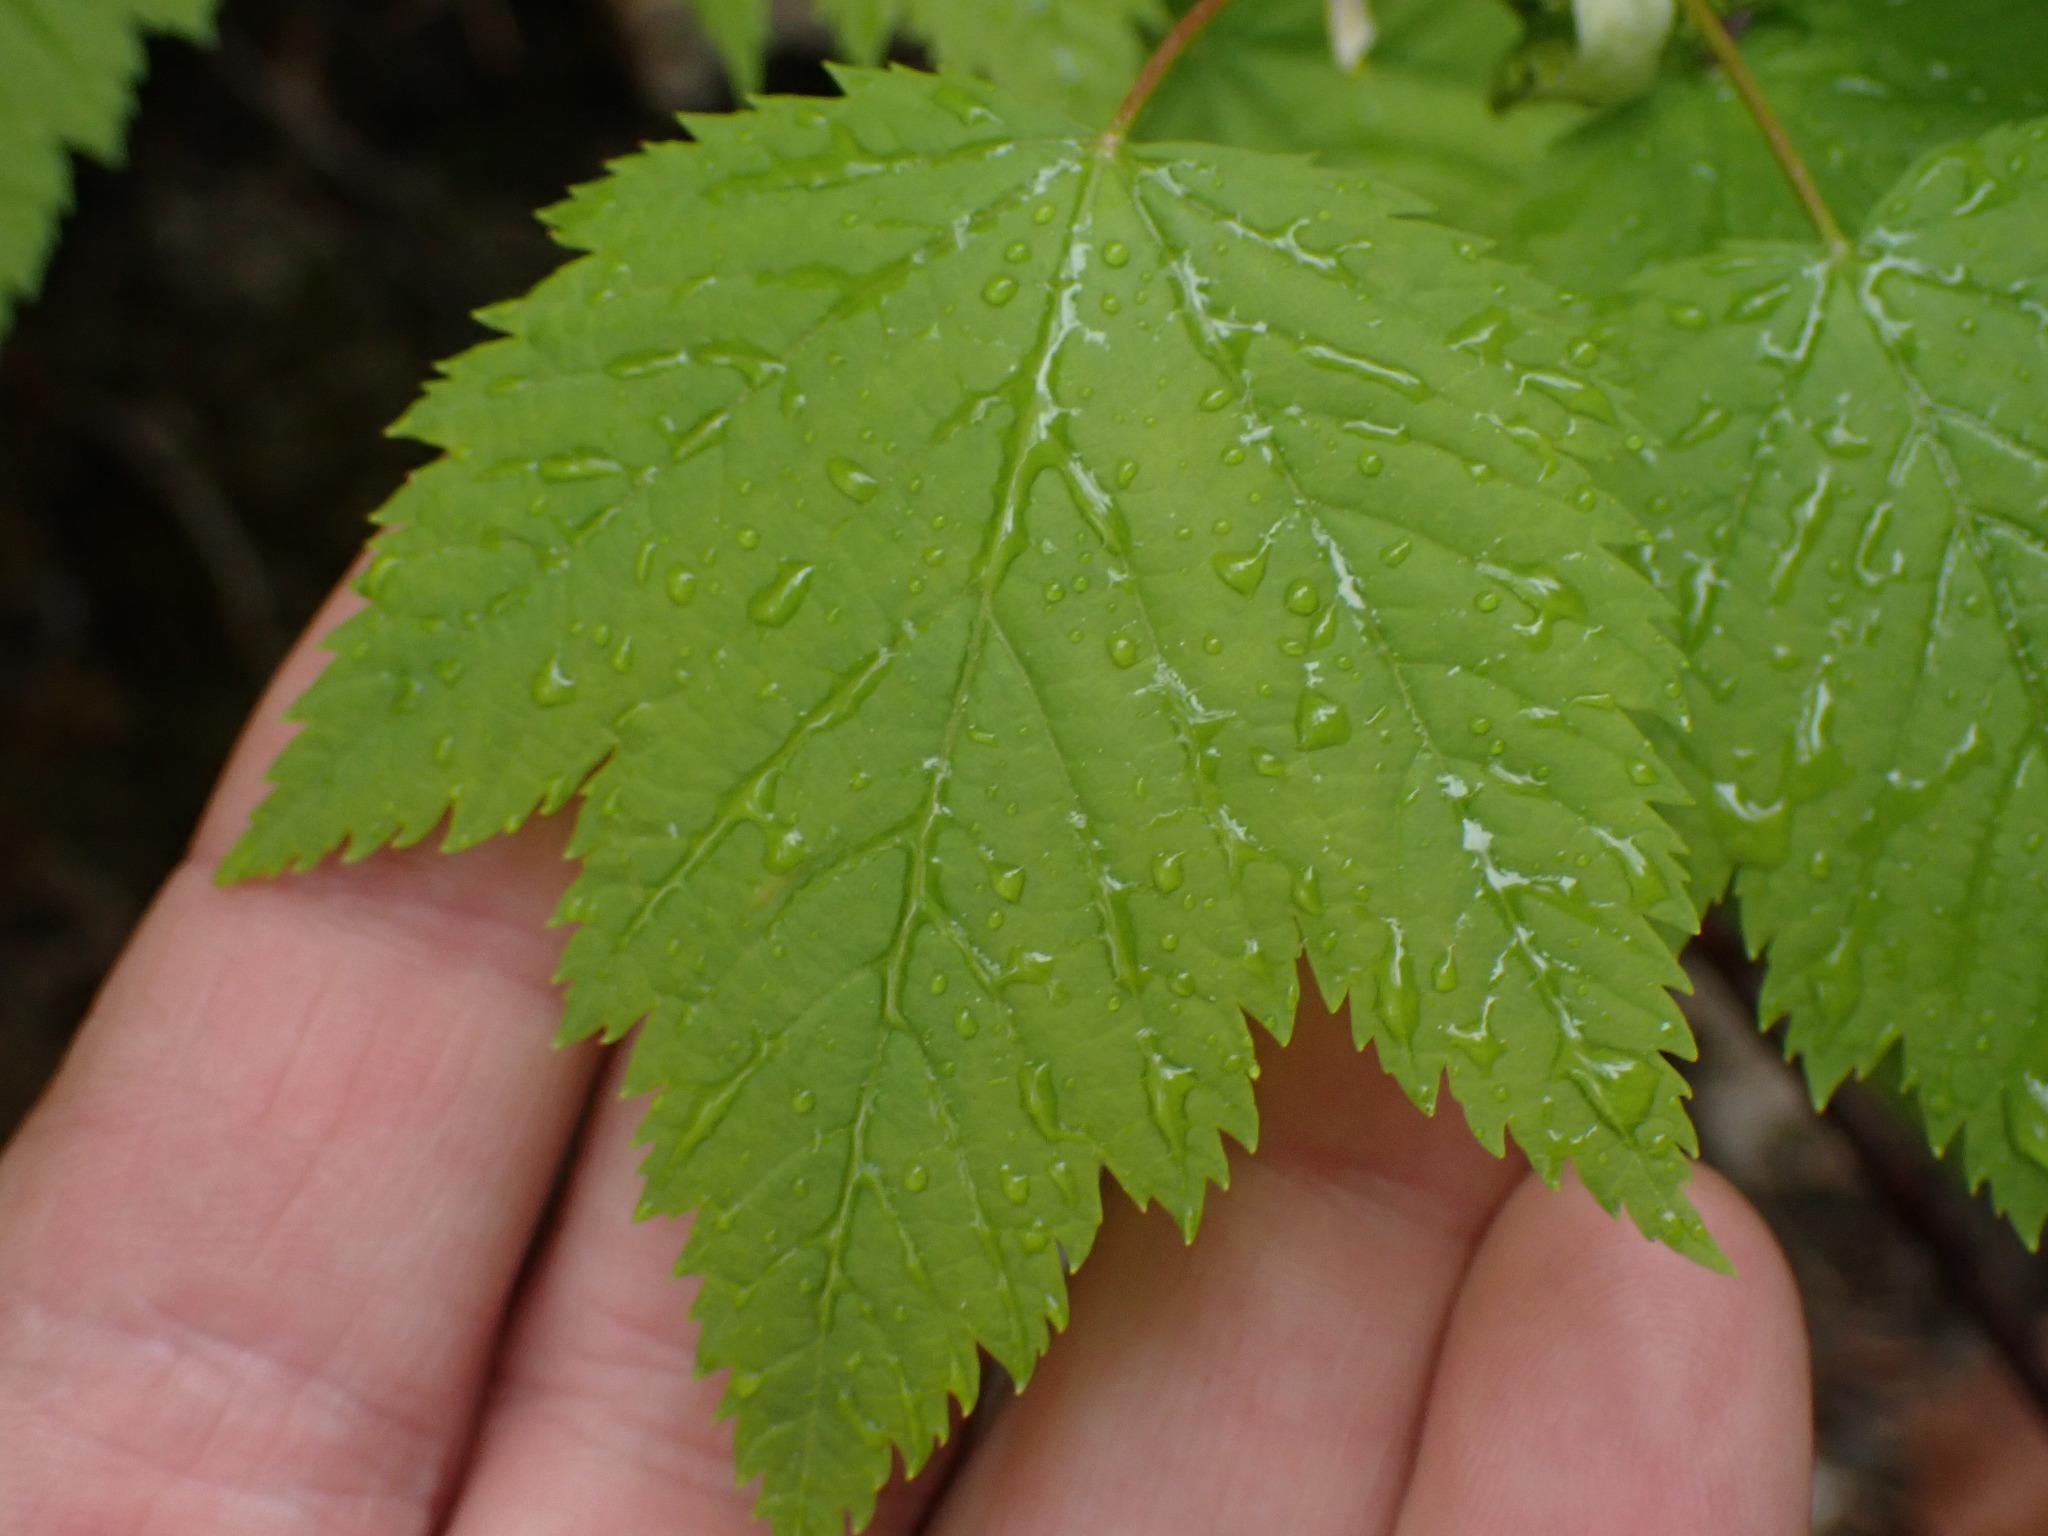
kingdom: Plantae
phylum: Tracheophyta
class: Magnoliopsida
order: Sapindales
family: Sapindaceae
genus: Acer
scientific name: Acer glabrum
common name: Rocky mountain maple
